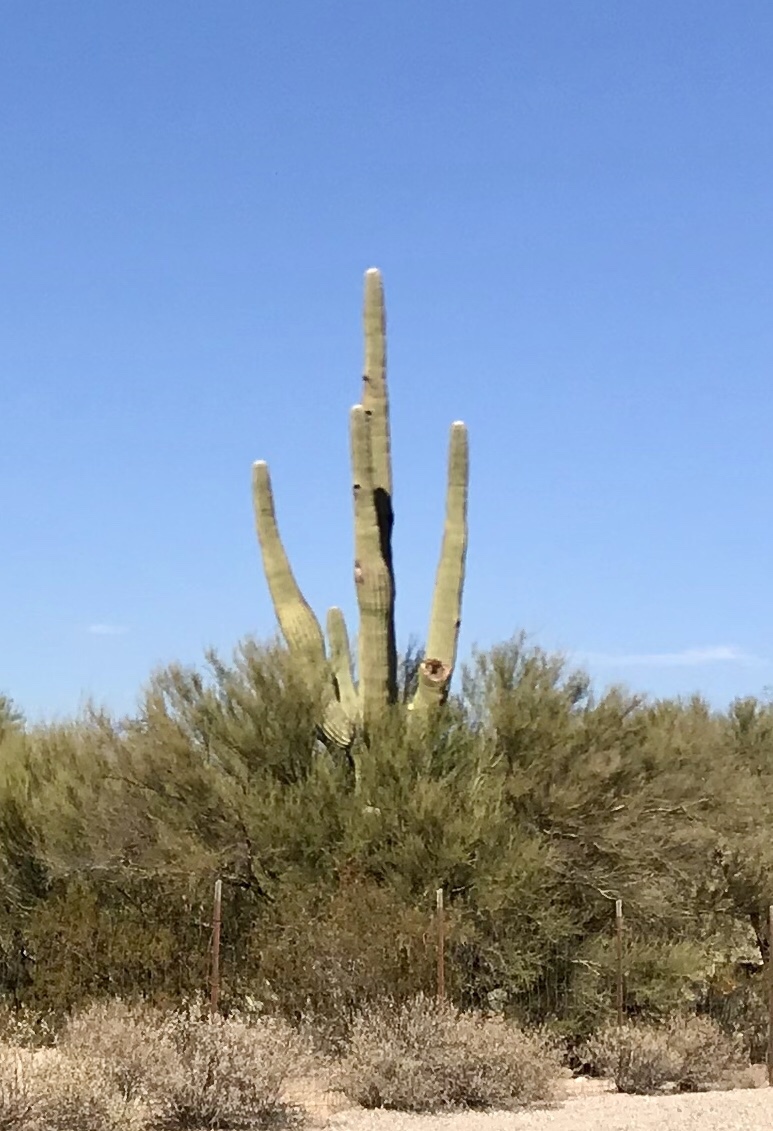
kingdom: Plantae
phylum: Tracheophyta
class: Magnoliopsida
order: Caryophyllales
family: Cactaceae
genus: Carnegiea
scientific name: Carnegiea gigantea
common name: Saguaro
